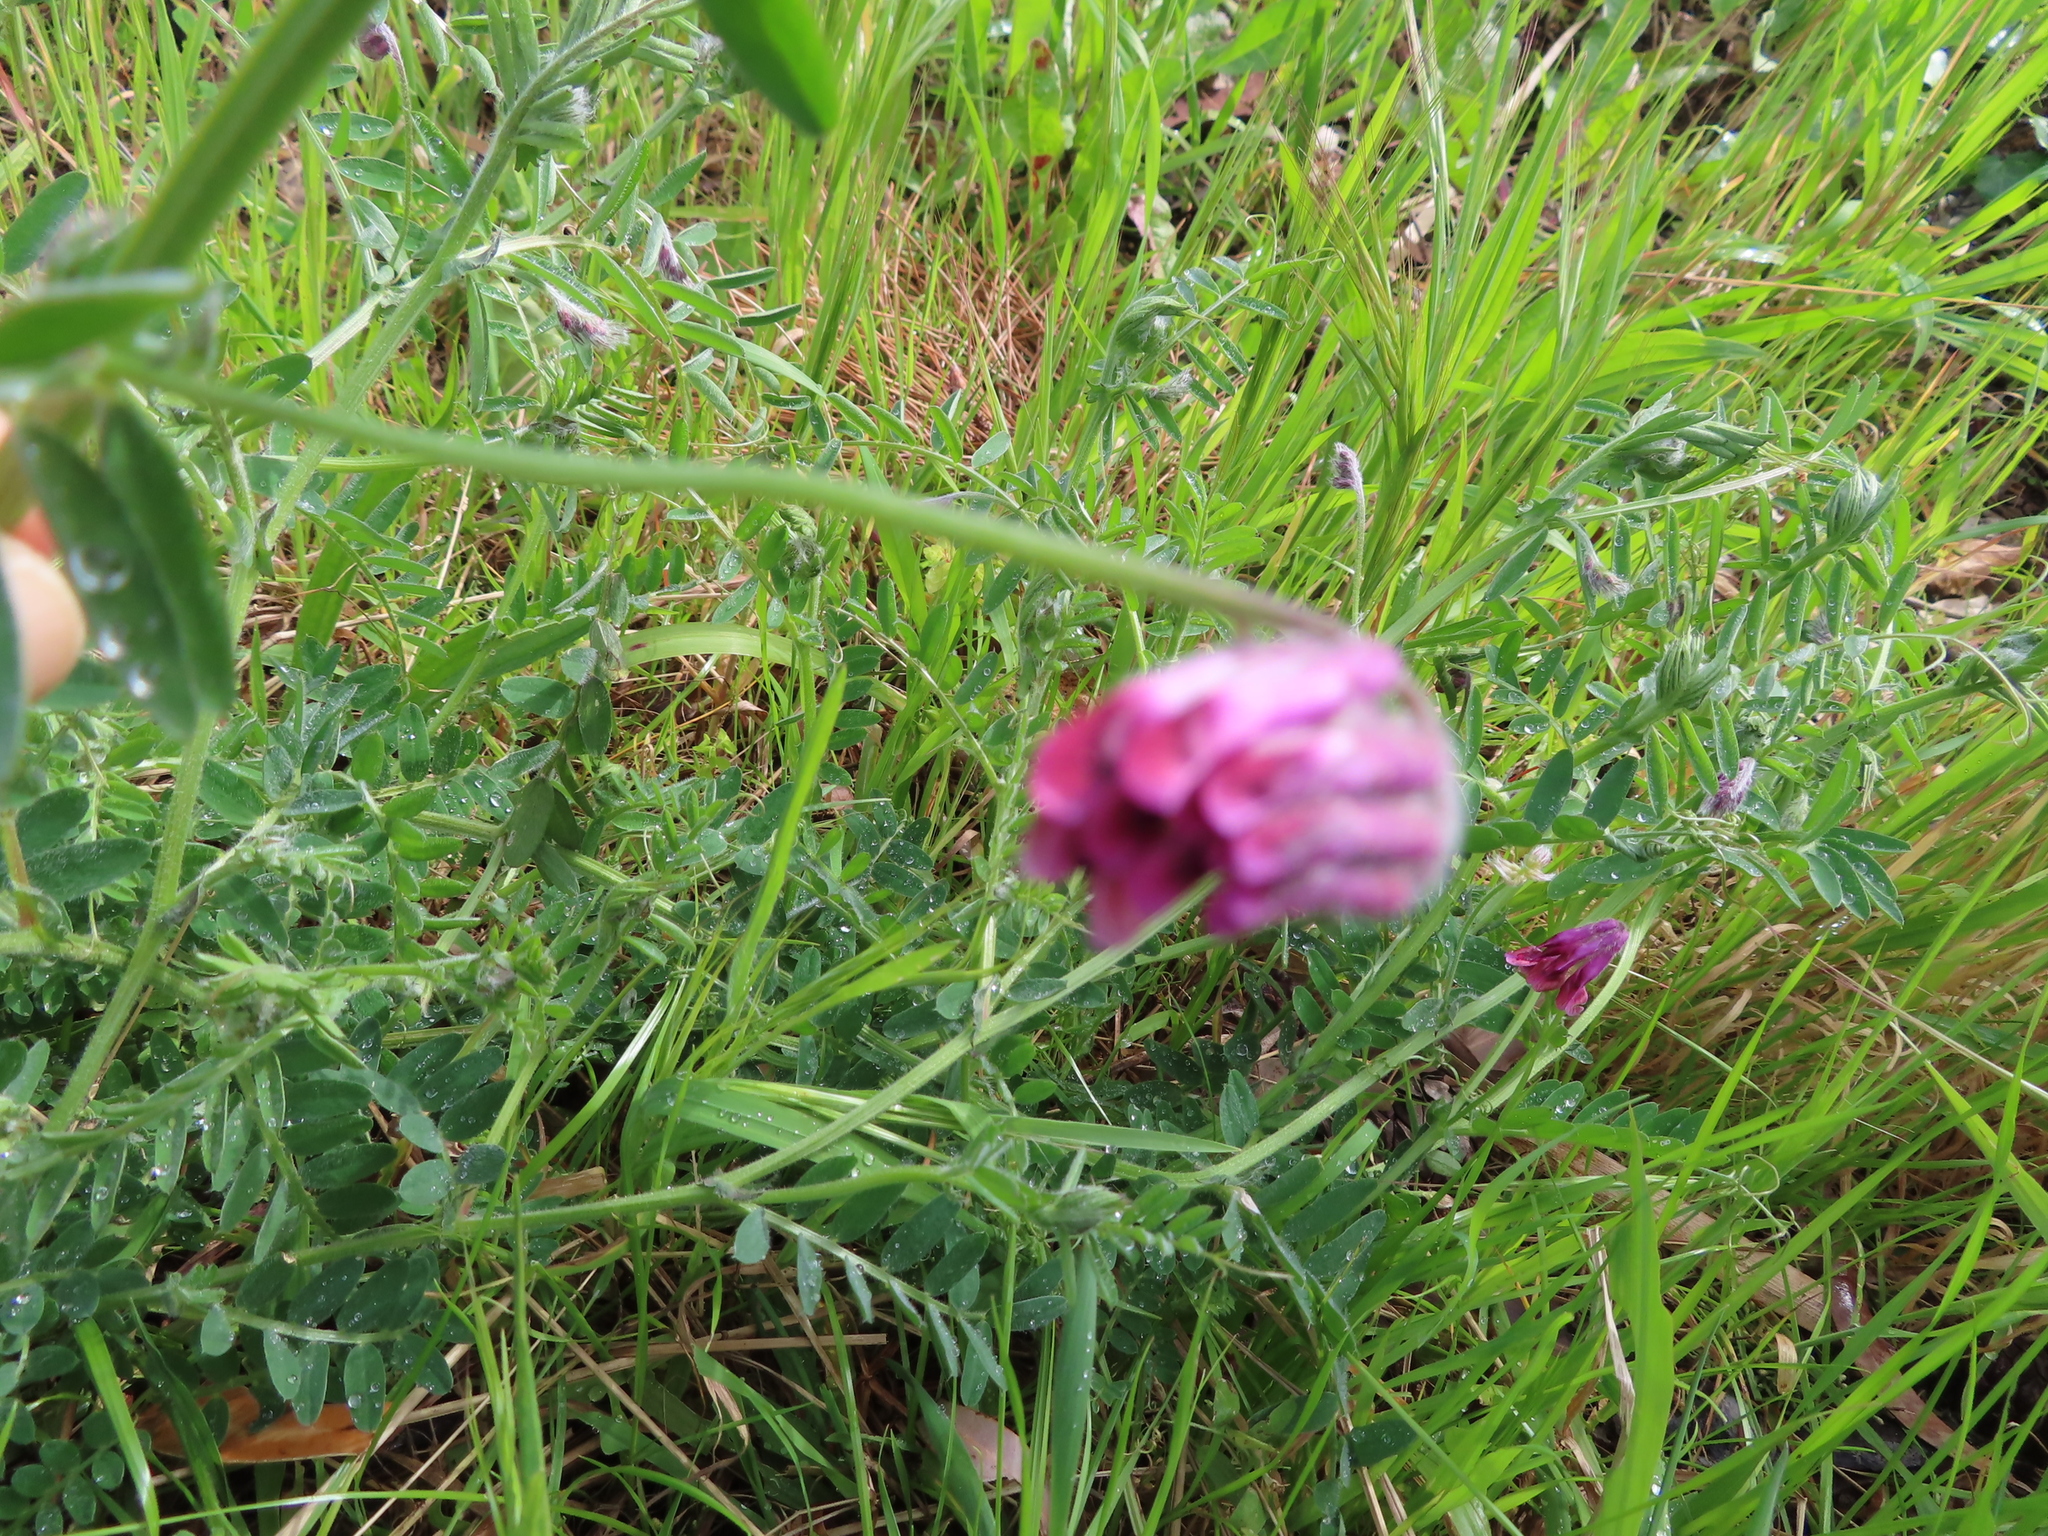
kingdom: Plantae
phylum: Tracheophyta
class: Magnoliopsida
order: Fabales
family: Fabaceae
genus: Vicia
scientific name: Vicia benghalensis
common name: Purple vetch
